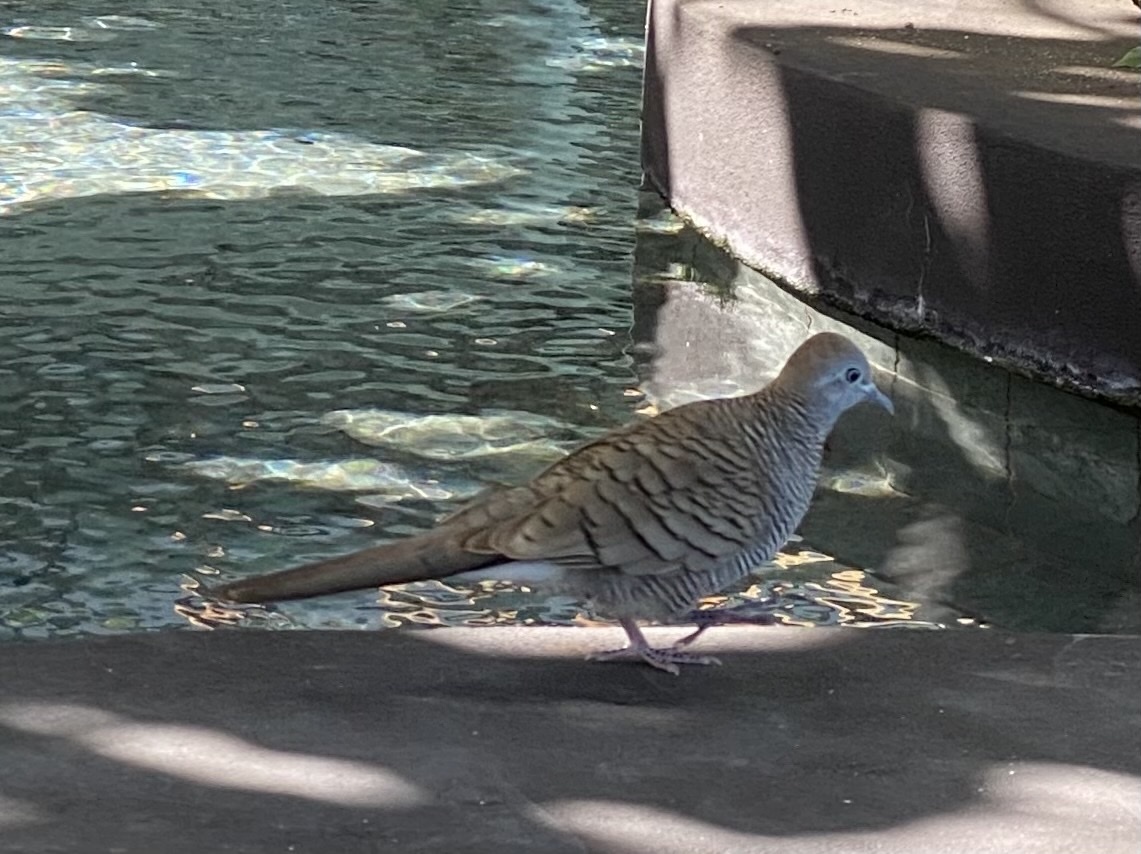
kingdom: Animalia
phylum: Chordata
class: Aves
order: Columbiformes
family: Columbidae
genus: Geopelia
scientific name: Geopelia striata
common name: Zebra dove
